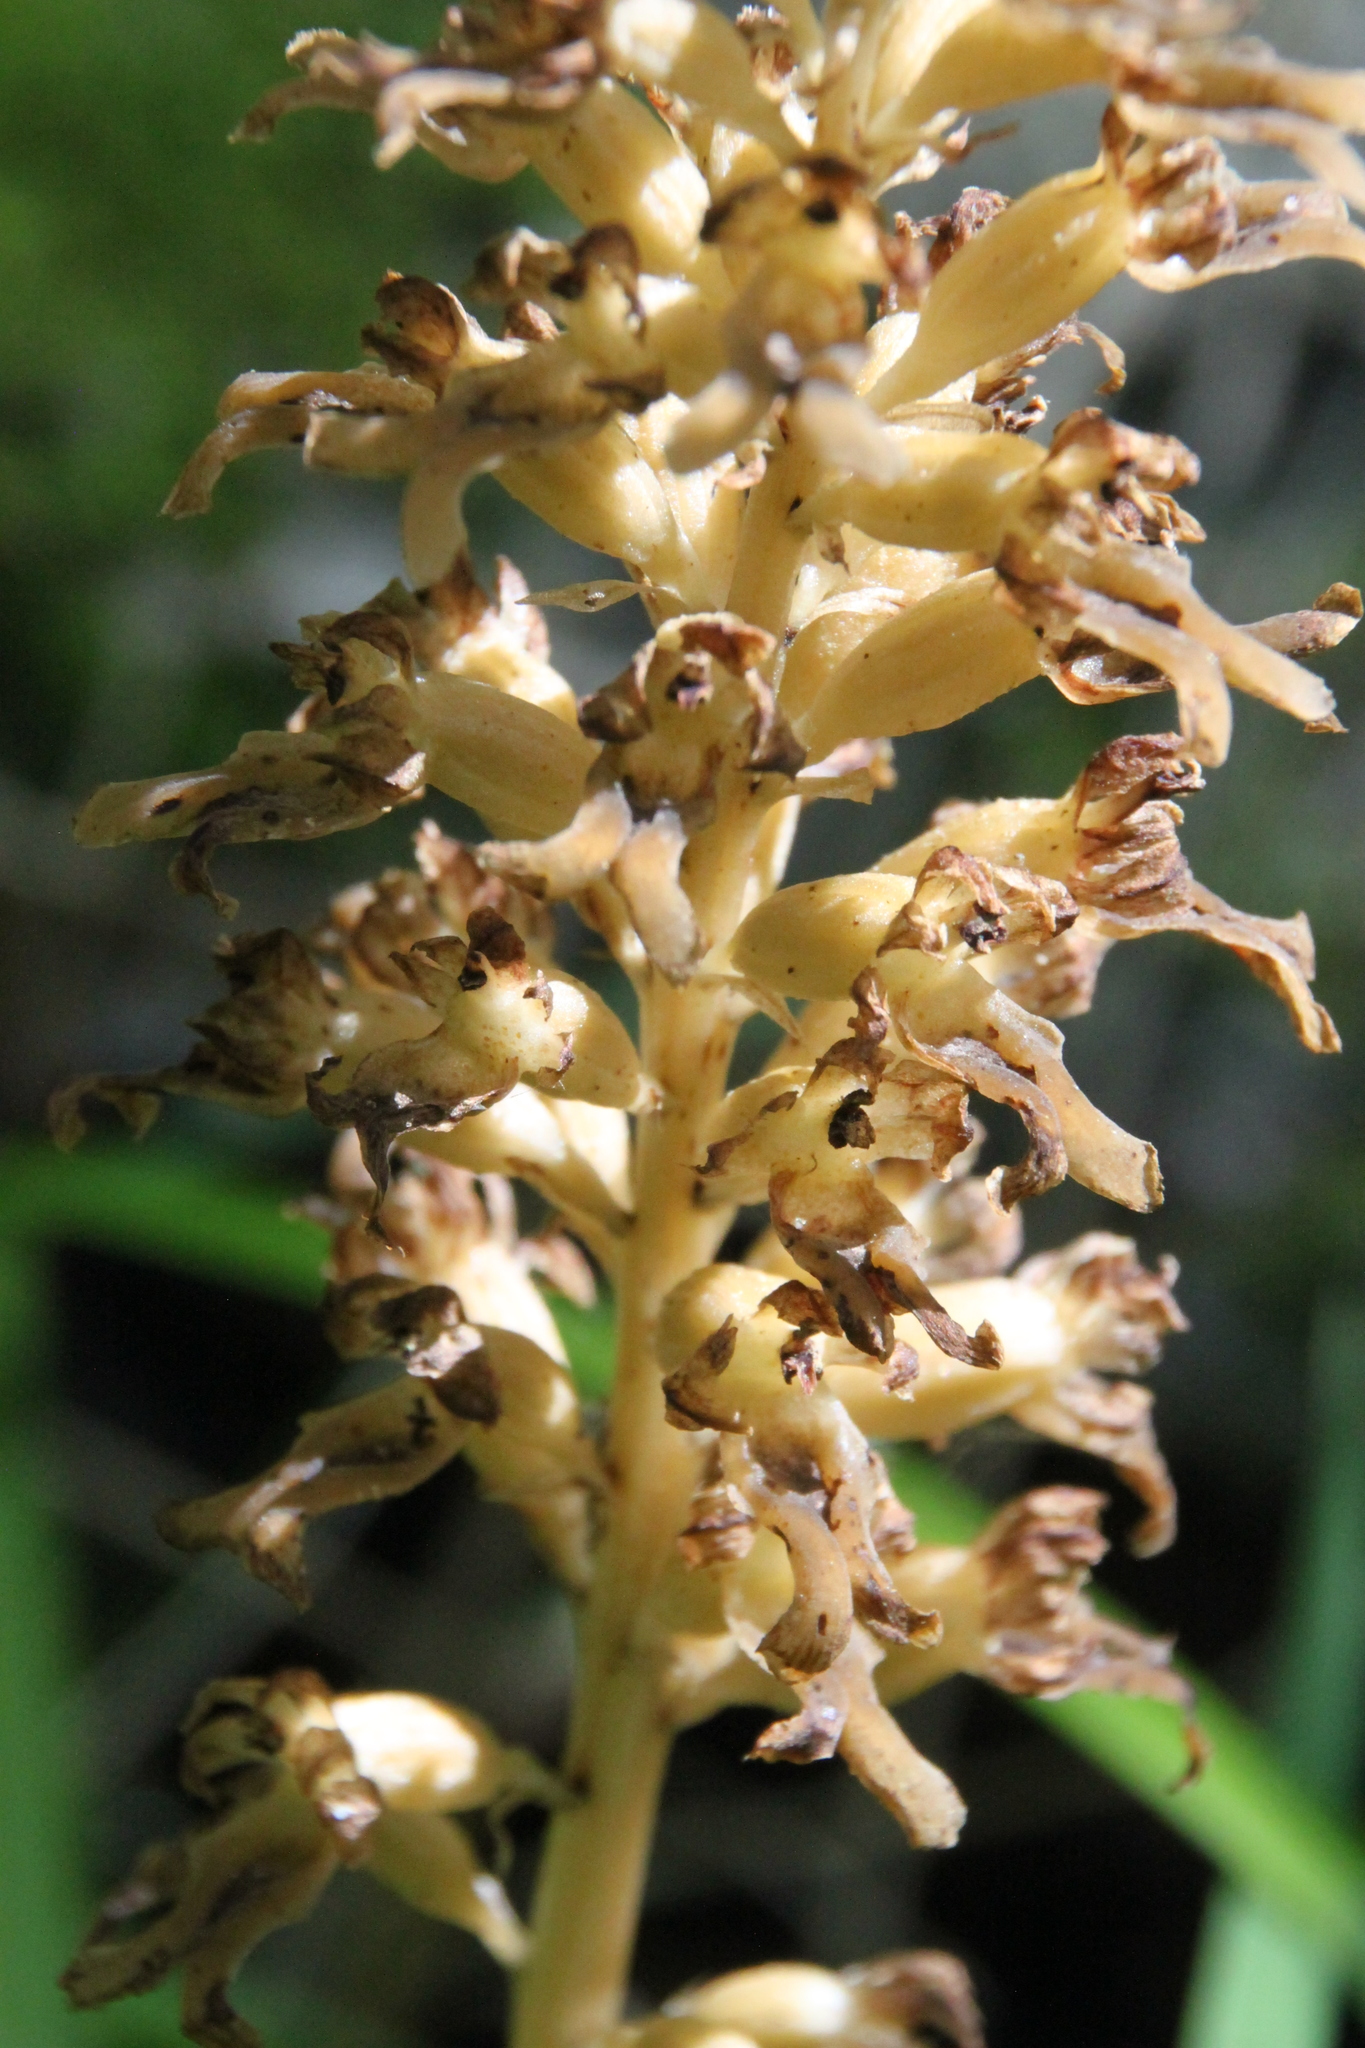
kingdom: Plantae
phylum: Tracheophyta
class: Liliopsida
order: Asparagales
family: Orchidaceae
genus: Neottia
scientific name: Neottia nidus-avis
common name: Bird's-nest orchid
